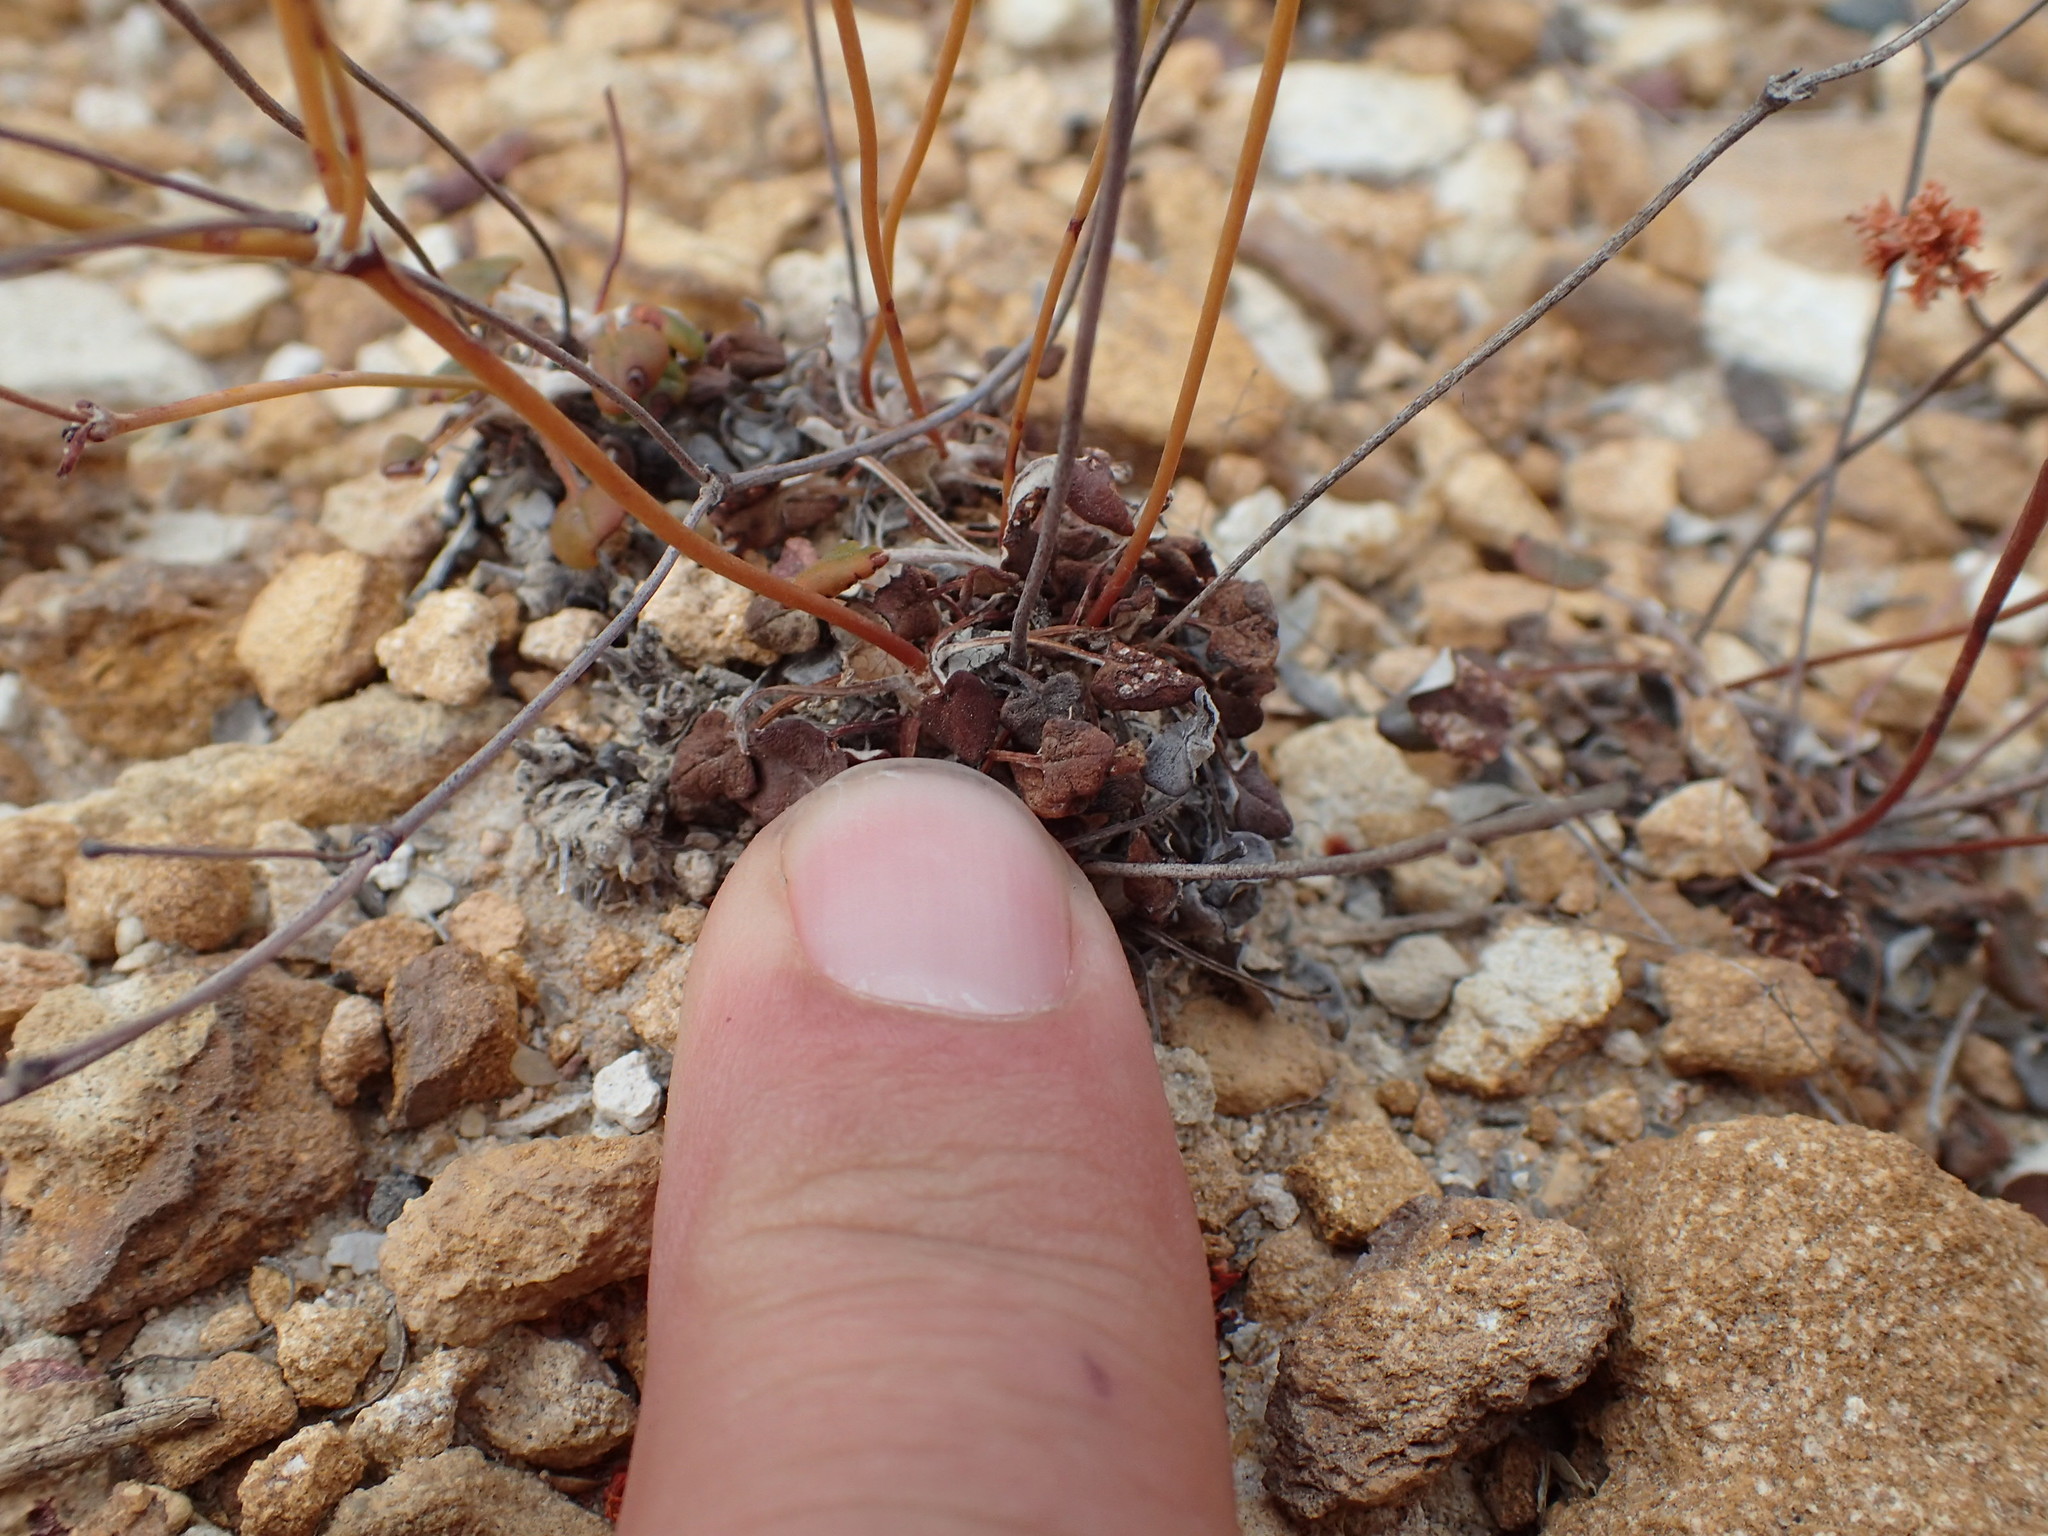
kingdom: Plantae
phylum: Tracheophyta
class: Magnoliopsida
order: Caryophyllales
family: Polygonaceae
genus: Eriogonum
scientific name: Eriogonum apricum
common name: Ione wild buckwheat
